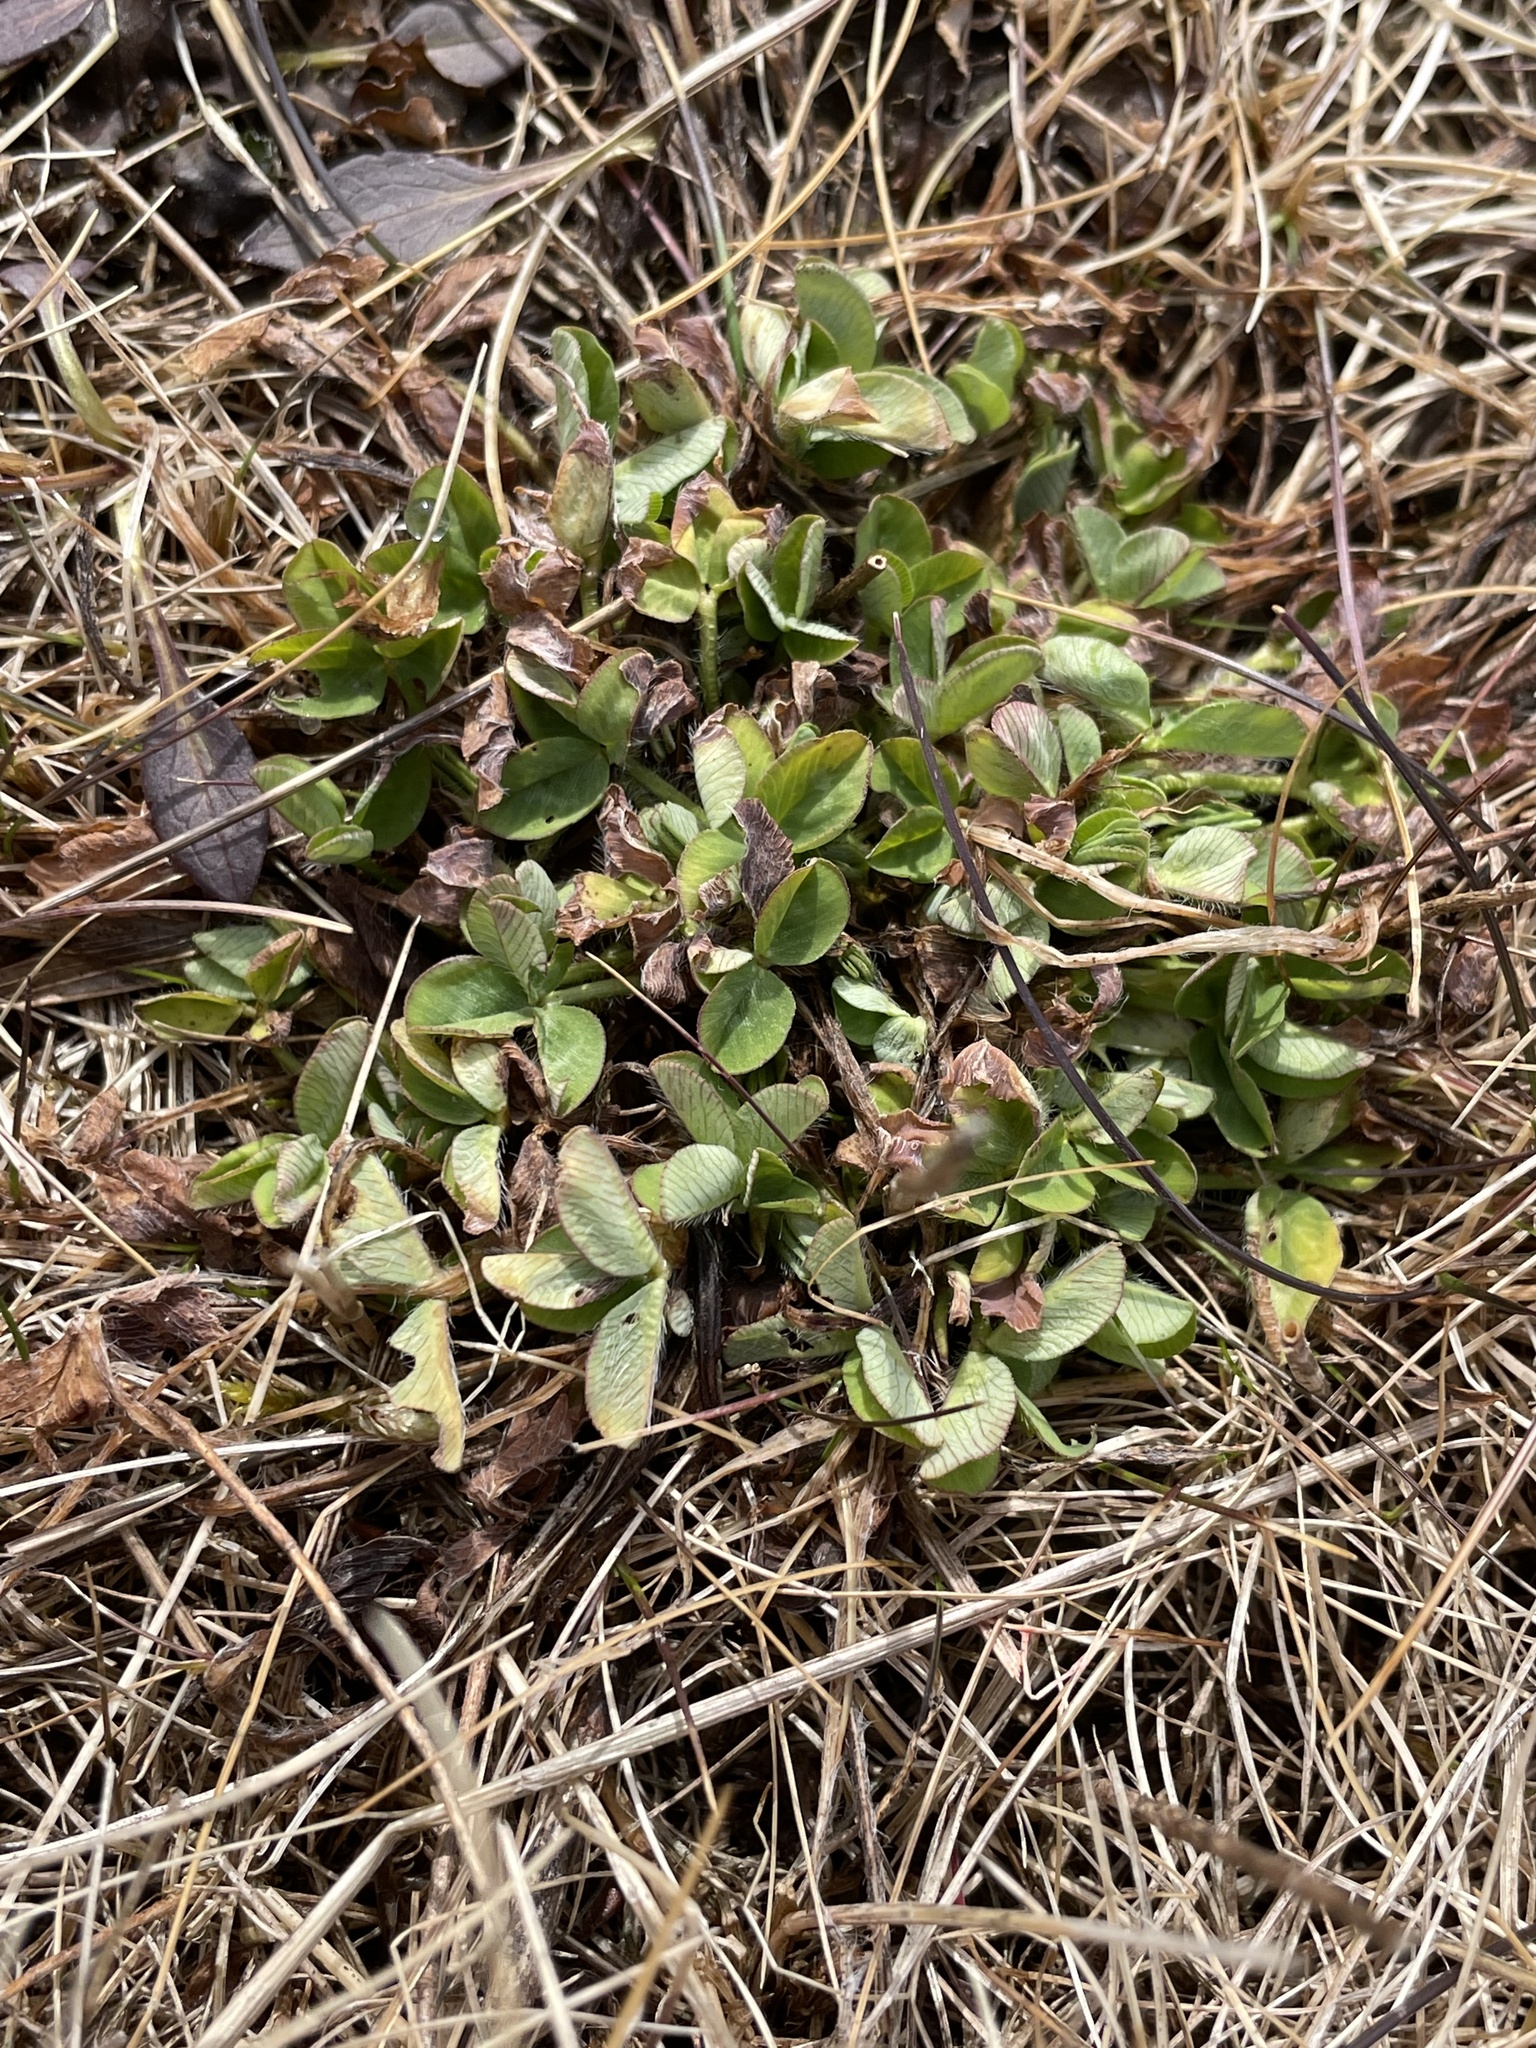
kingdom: Plantae
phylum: Tracheophyta
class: Magnoliopsida
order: Fabales
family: Fabaceae
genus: Trifolium
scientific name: Trifolium repens
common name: White clover
